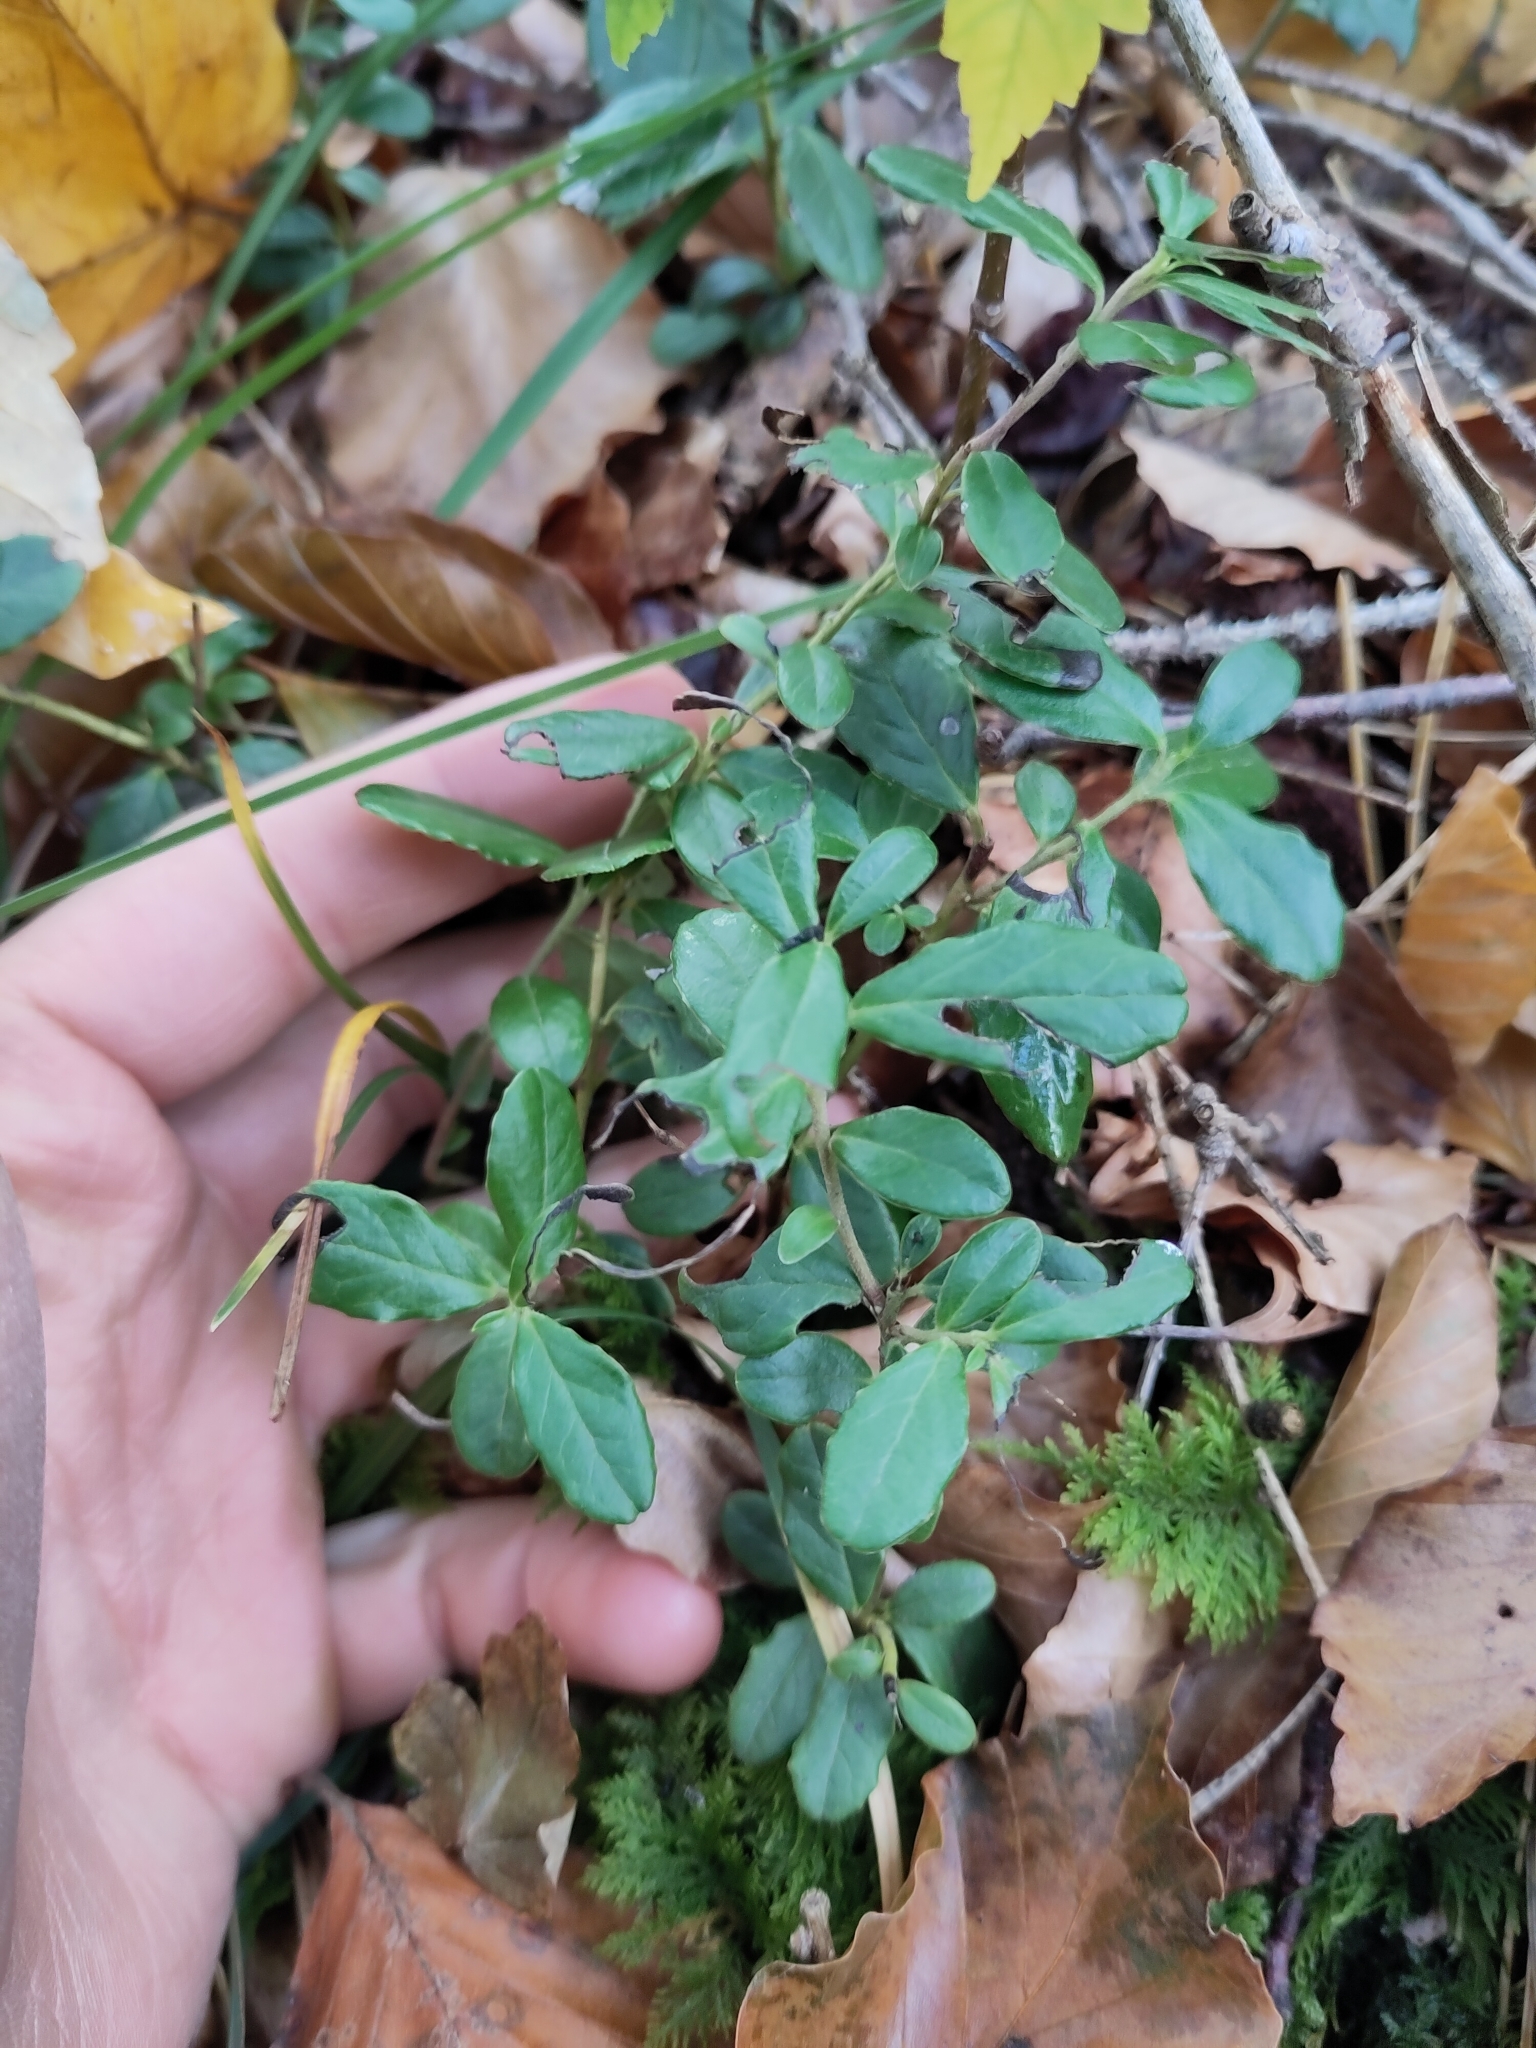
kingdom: Plantae
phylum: Tracheophyta
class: Magnoliopsida
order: Ericales
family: Ericaceae
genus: Vaccinium
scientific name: Vaccinium vitis-idaea
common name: Cowberry
